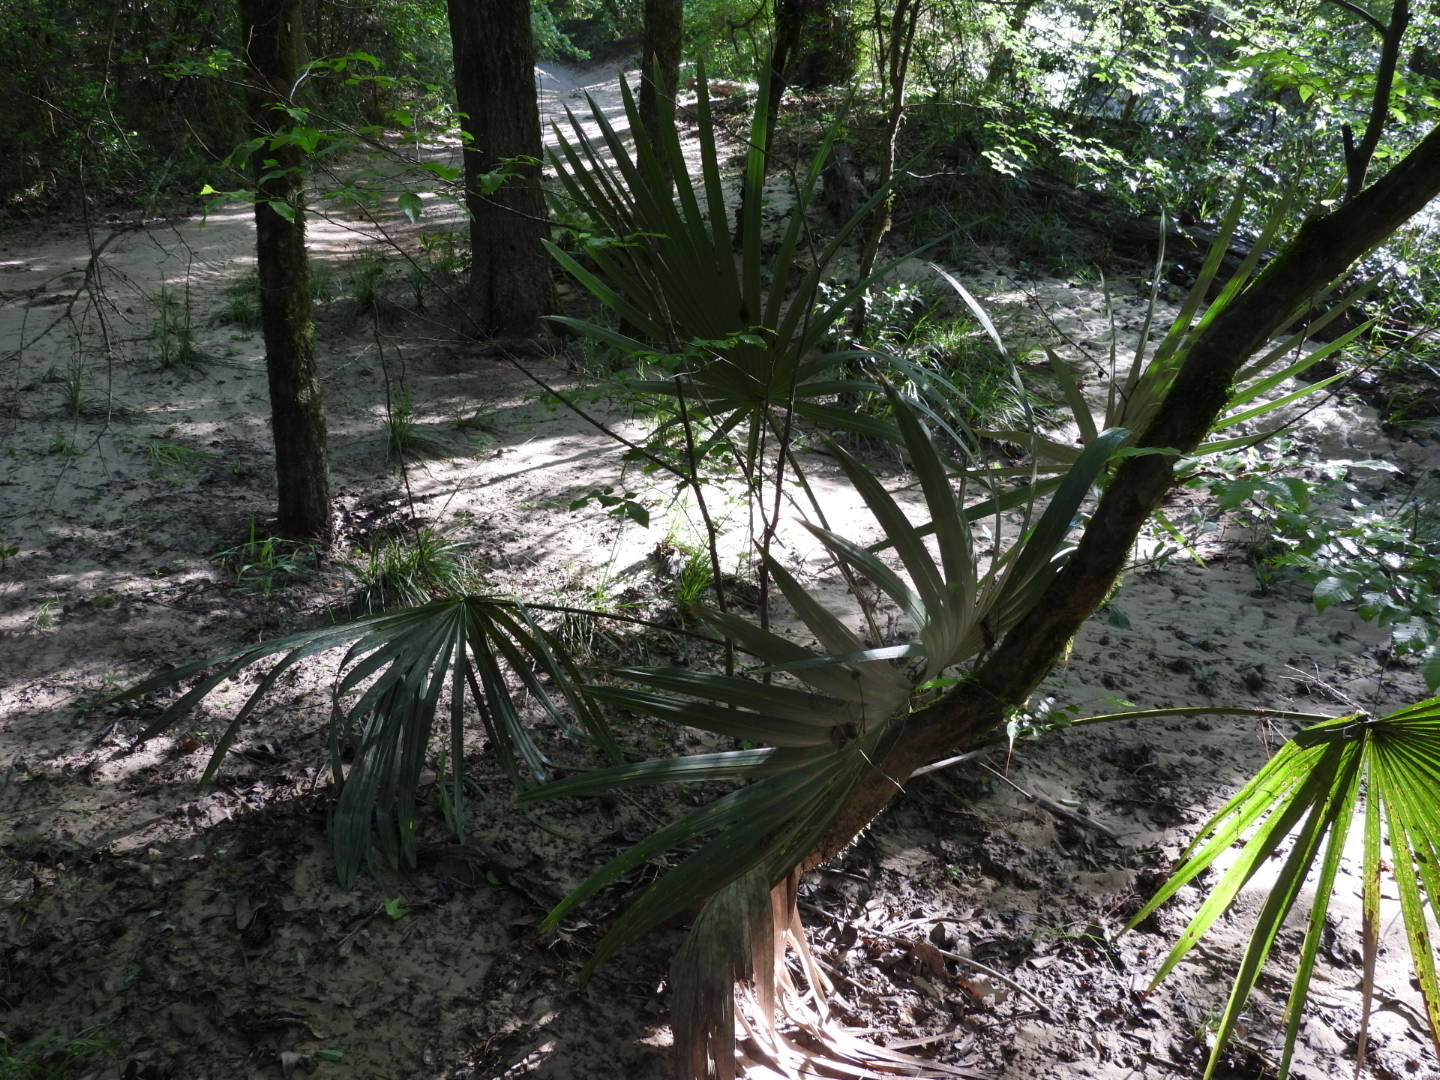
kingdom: Plantae
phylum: Tracheophyta
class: Liliopsida
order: Arecales
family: Arecaceae
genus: Sabal
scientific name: Sabal minor
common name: Dwarf palmetto
